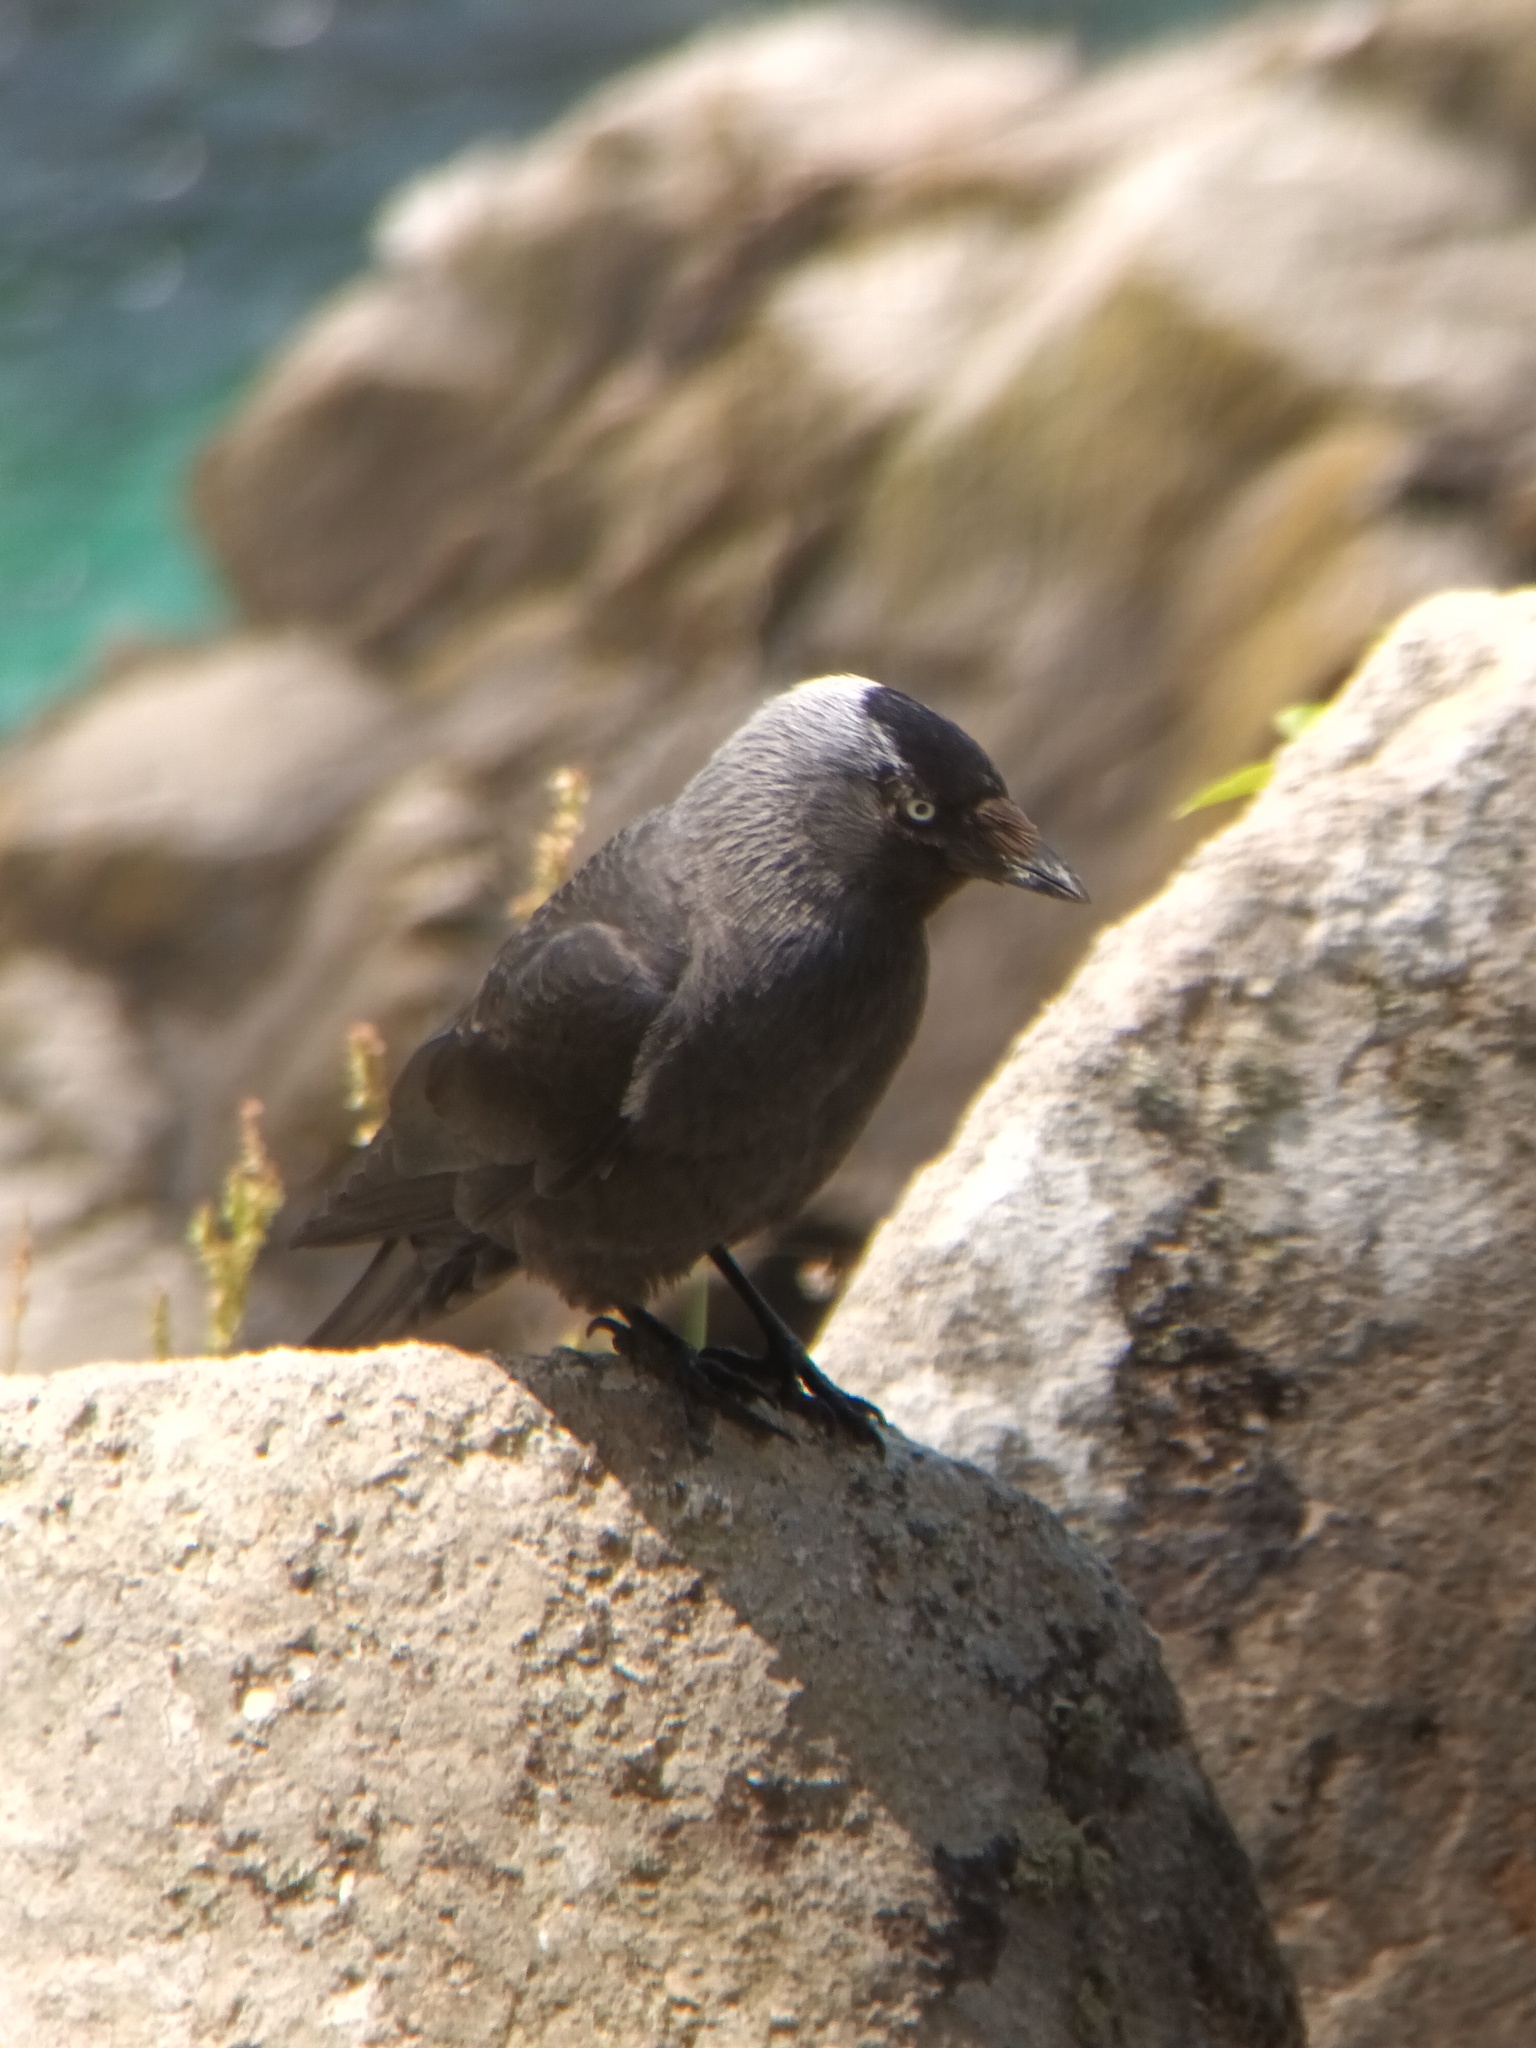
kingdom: Animalia
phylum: Chordata
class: Aves
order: Passeriformes
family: Corvidae
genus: Coloeus
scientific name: Coloeus monedula
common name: Western jackdaw
